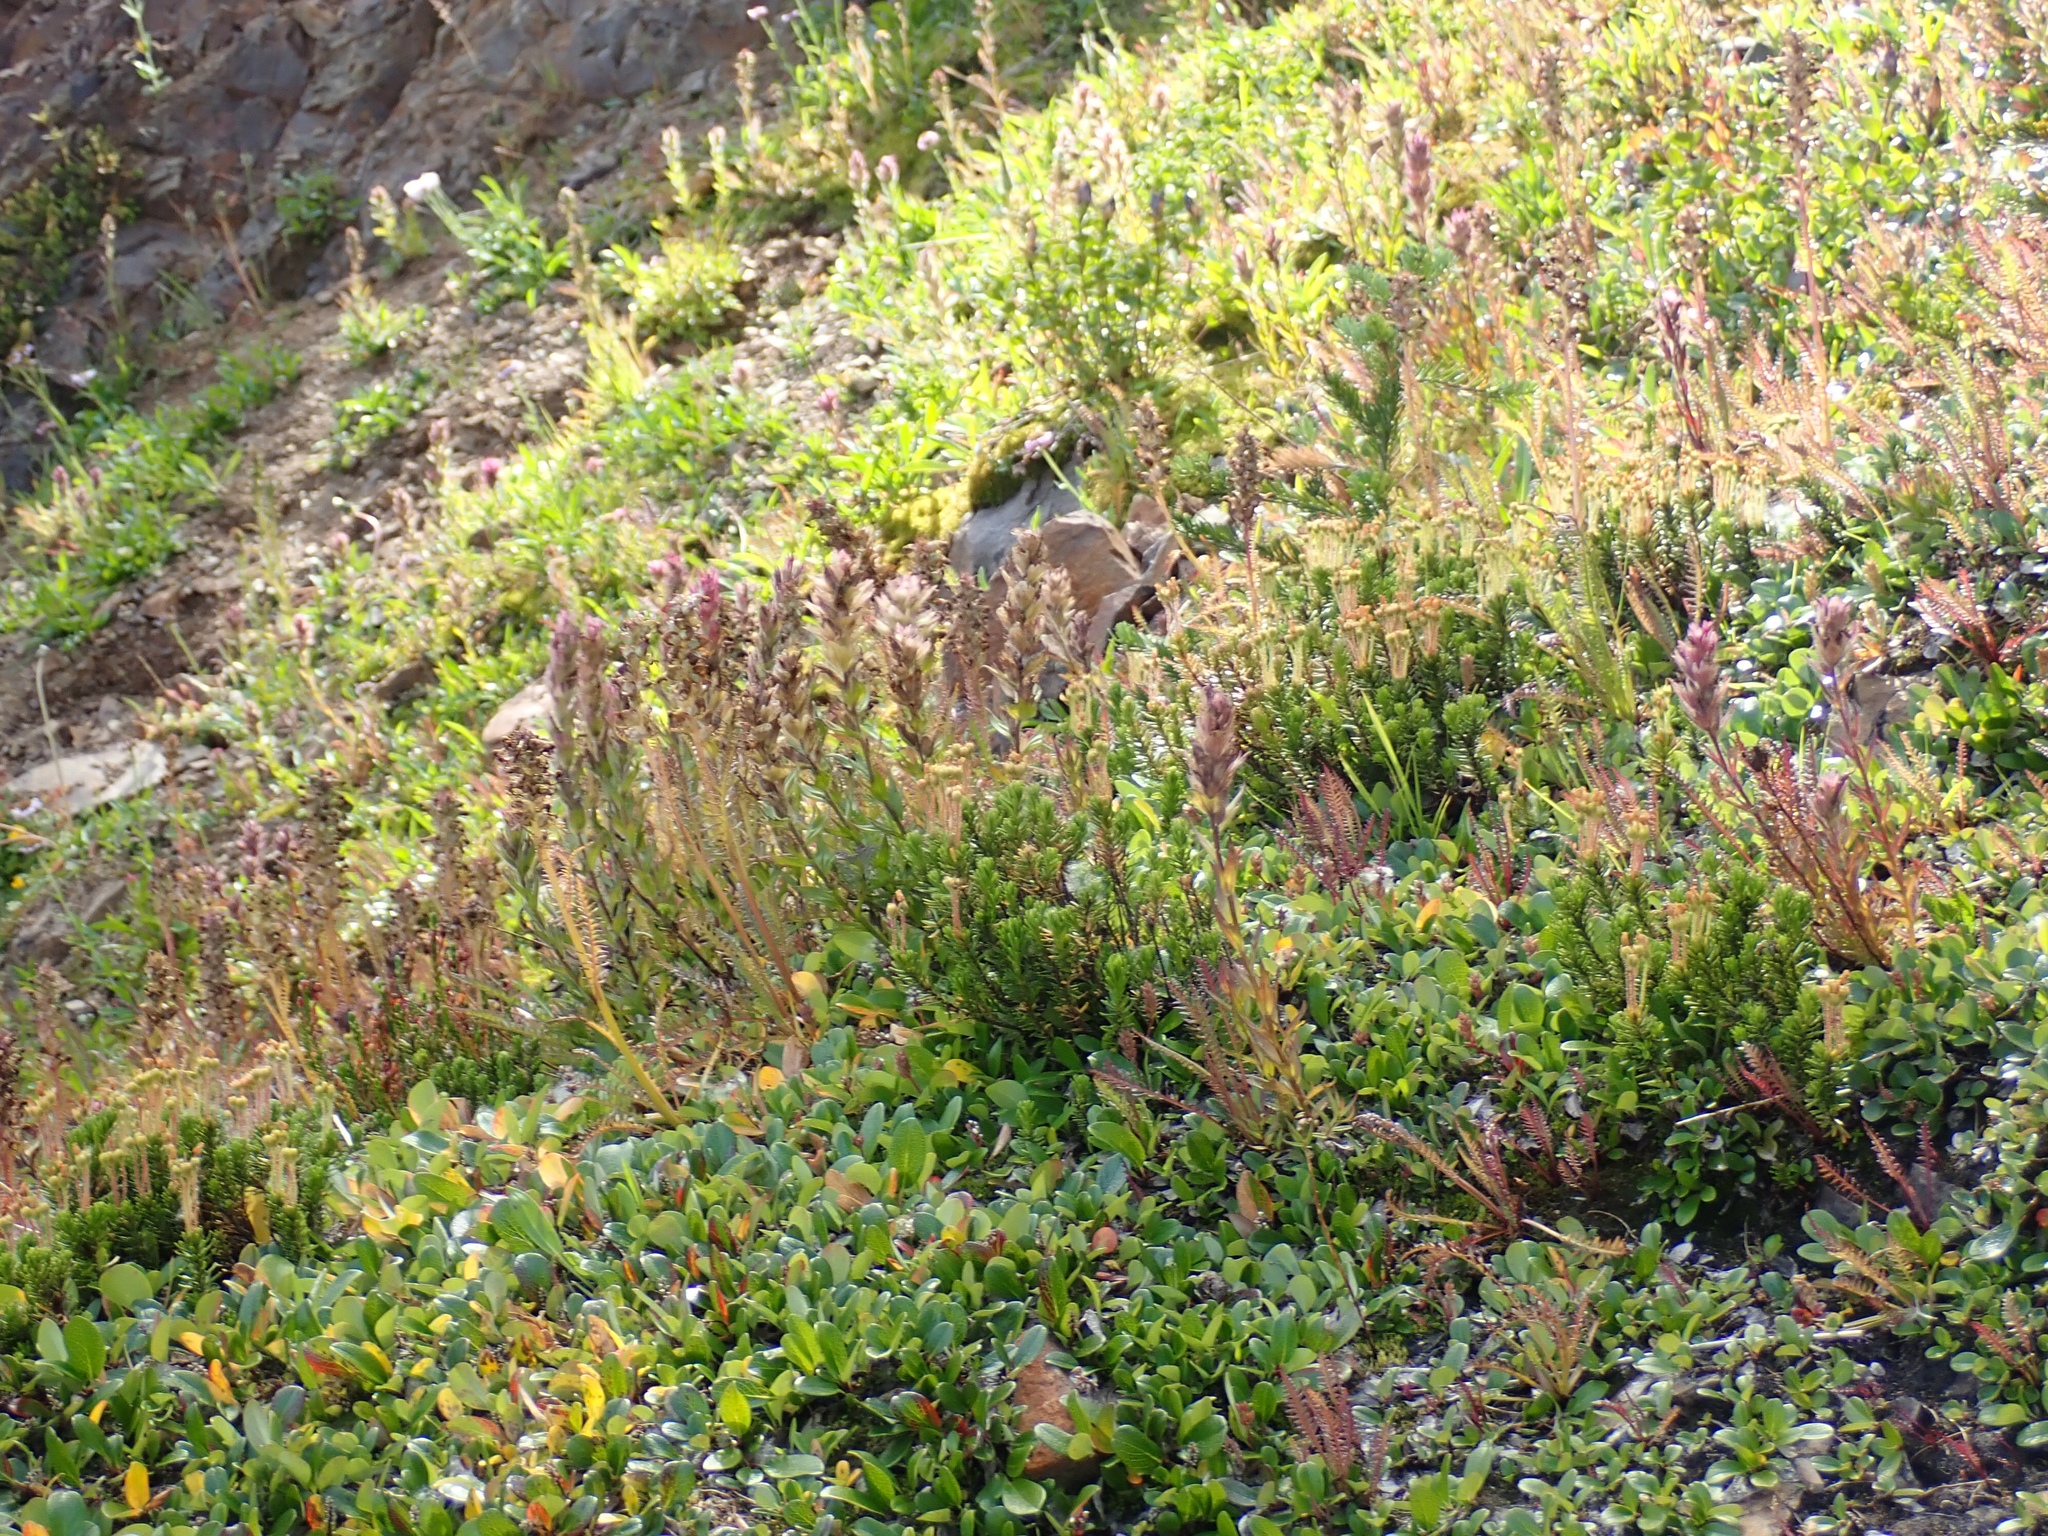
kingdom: Plantae
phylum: Tracheophyta
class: Magnoliopsida
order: Lamiales
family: Orobanchaceae
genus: Pedicularis
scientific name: Pedicularis groenlandica
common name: Elephant's-head
